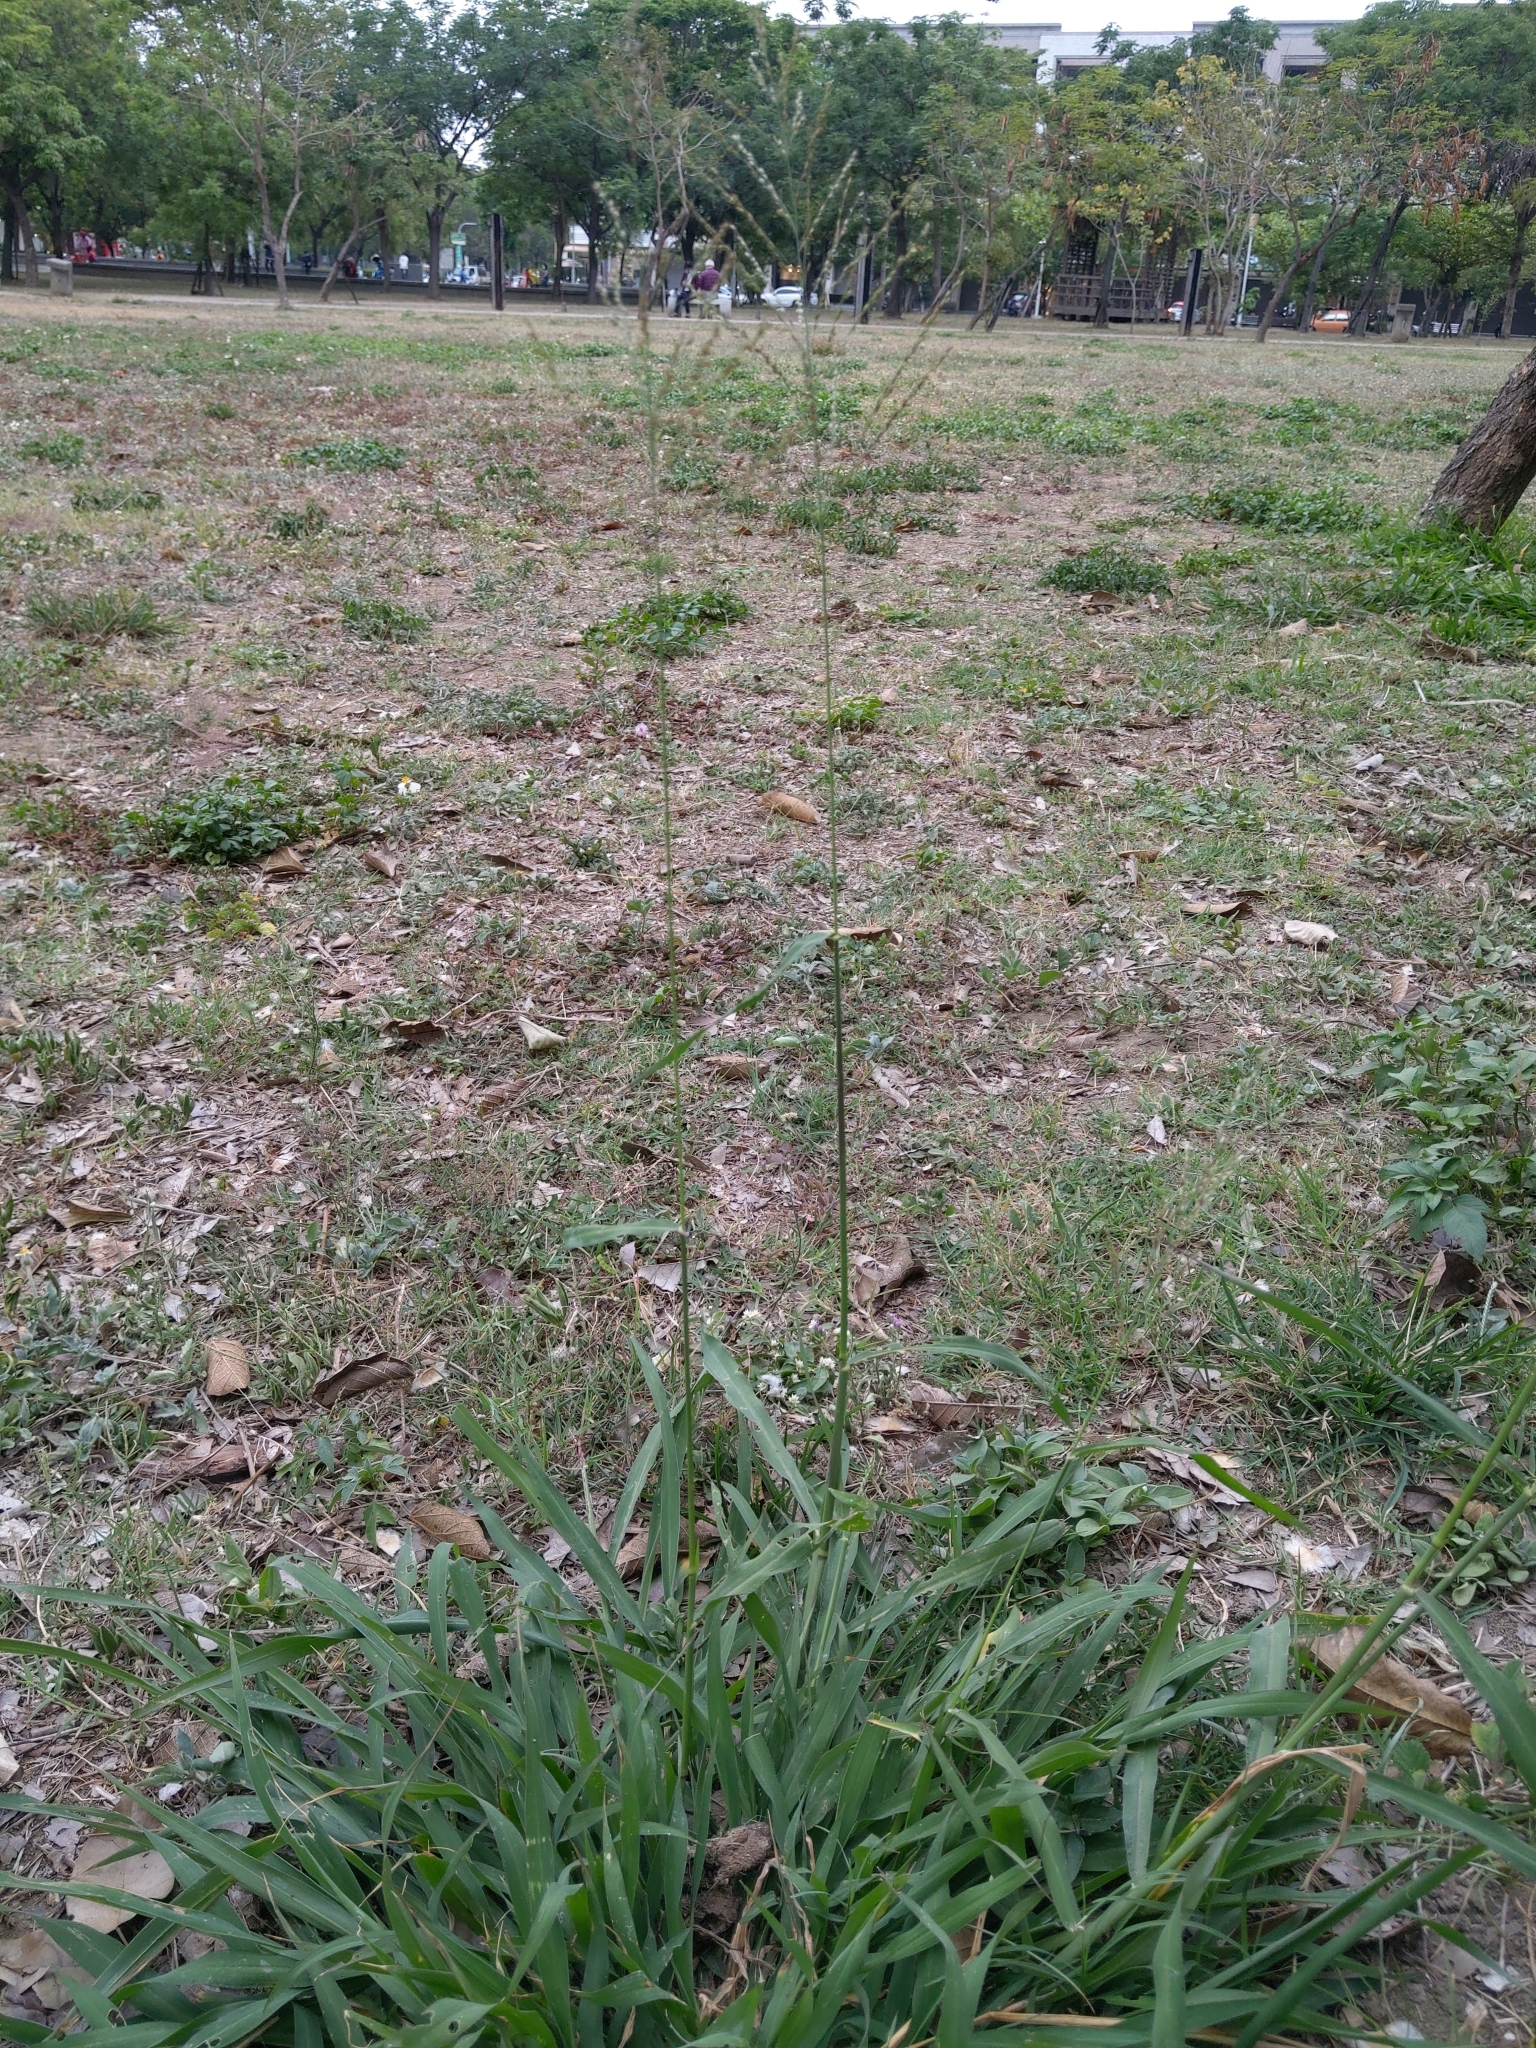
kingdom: Plantae
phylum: Tracheophyta
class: Liliopsida
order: Poales
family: Poaceae
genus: Megathyrsus
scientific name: Megathyrsus maximus
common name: Guineagrass
